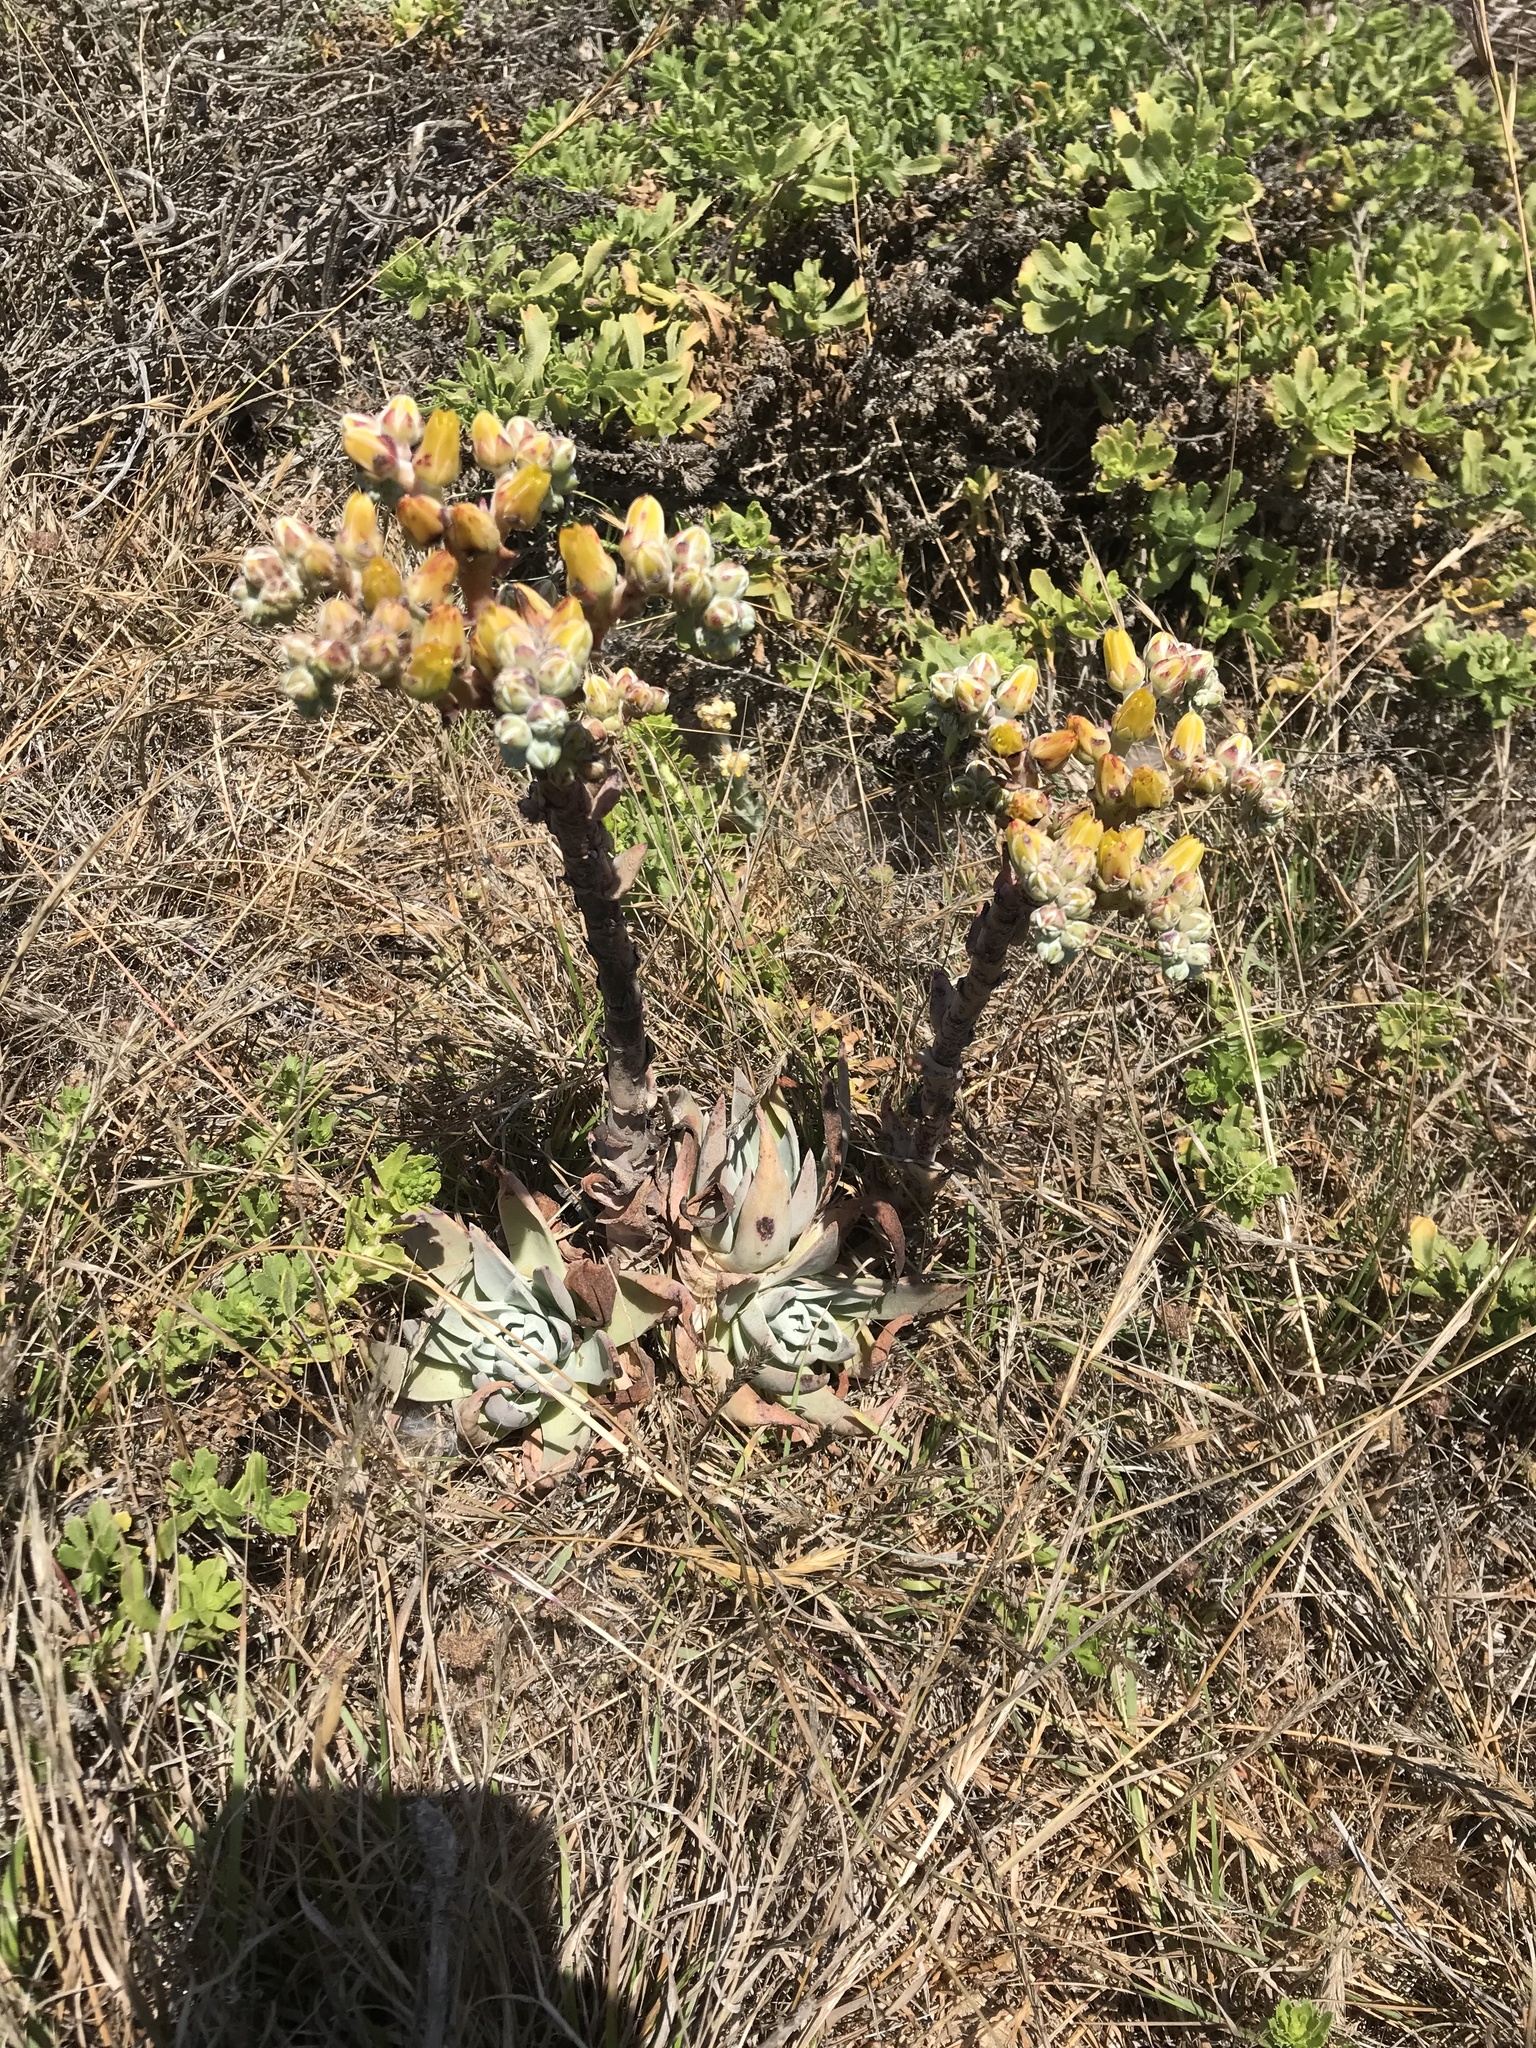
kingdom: Plantae
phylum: Tracheophyta
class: Magnoliopsida
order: Saxifragales
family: Crassulaceae
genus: Dudleya
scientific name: Dudleya caespitosa
